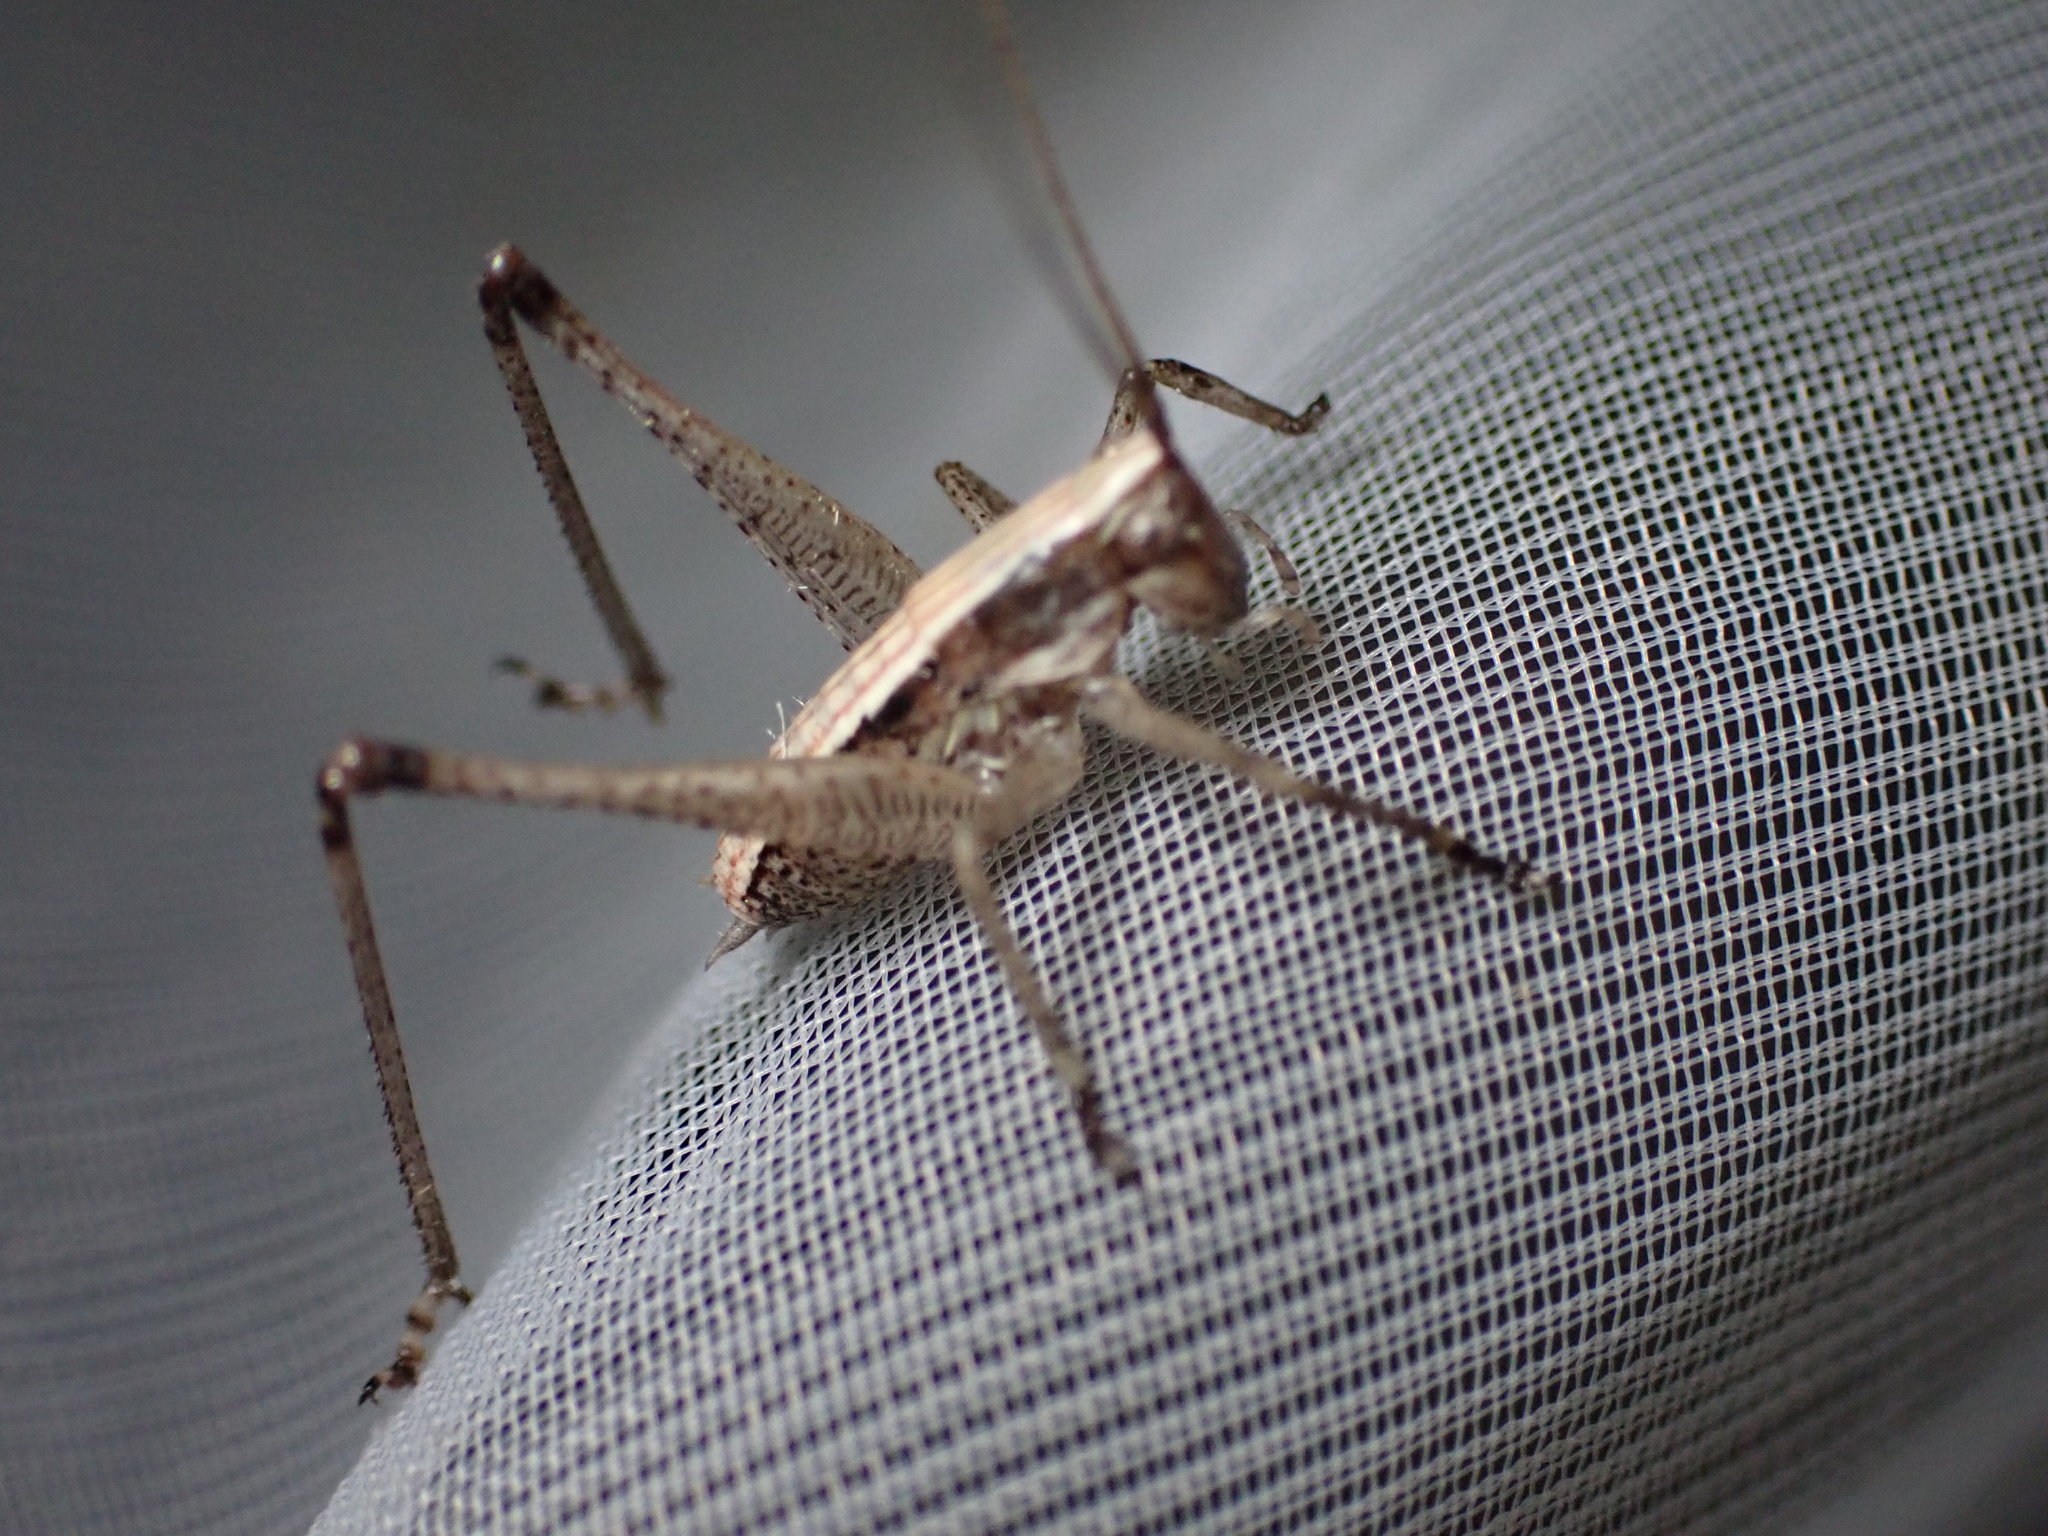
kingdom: Animalia
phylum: Arthropoda
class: Insecta
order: Orthoptera
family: Tettigoniidae
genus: Yersinella
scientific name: Yersinella raymondii
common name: Raymond's bush-cricket
